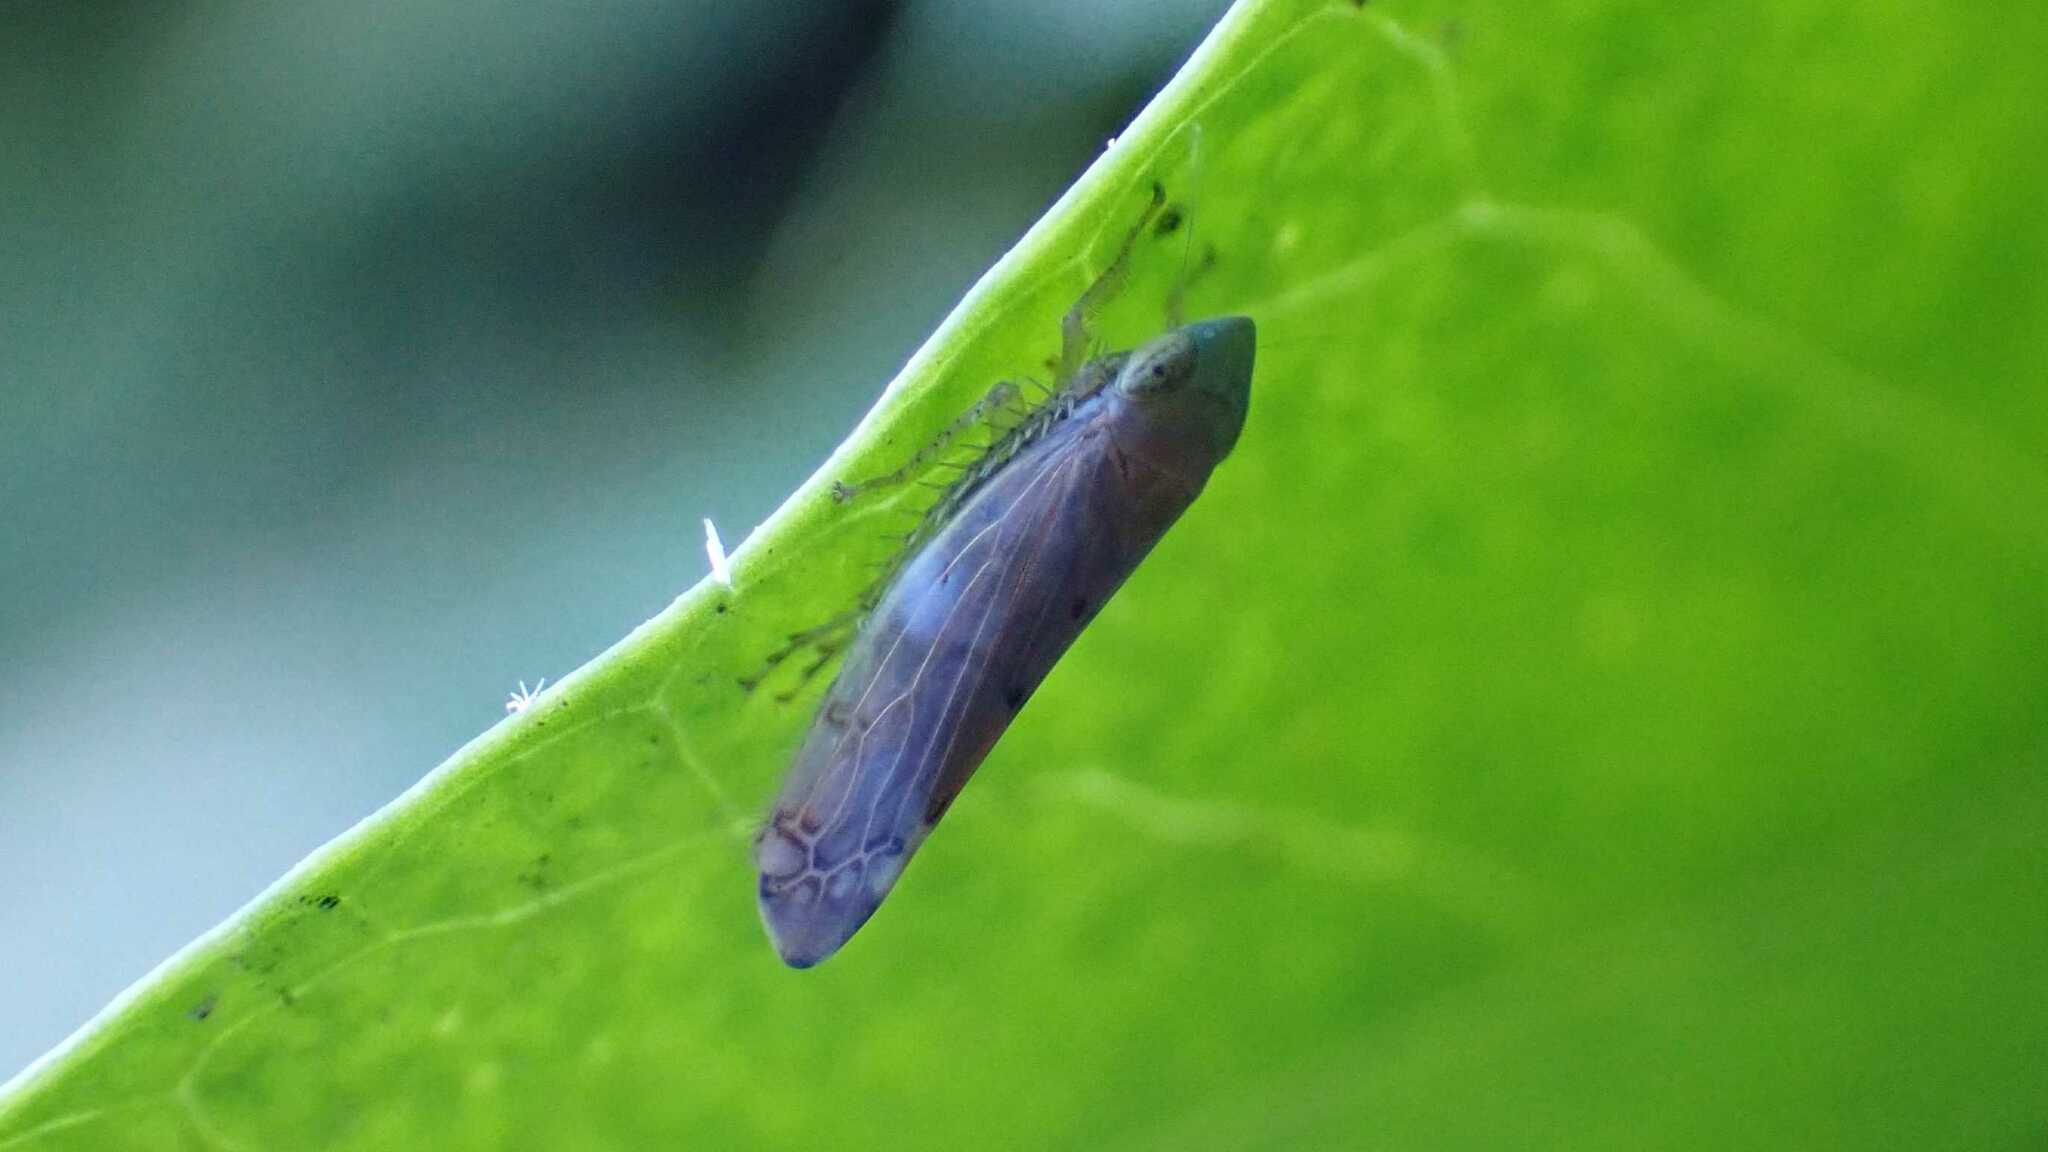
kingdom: Animalia
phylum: Arthropoda
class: Insecta
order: Hemiptera
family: Cicadellidae
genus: Synophropsis
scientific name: Synophropsis lauri
